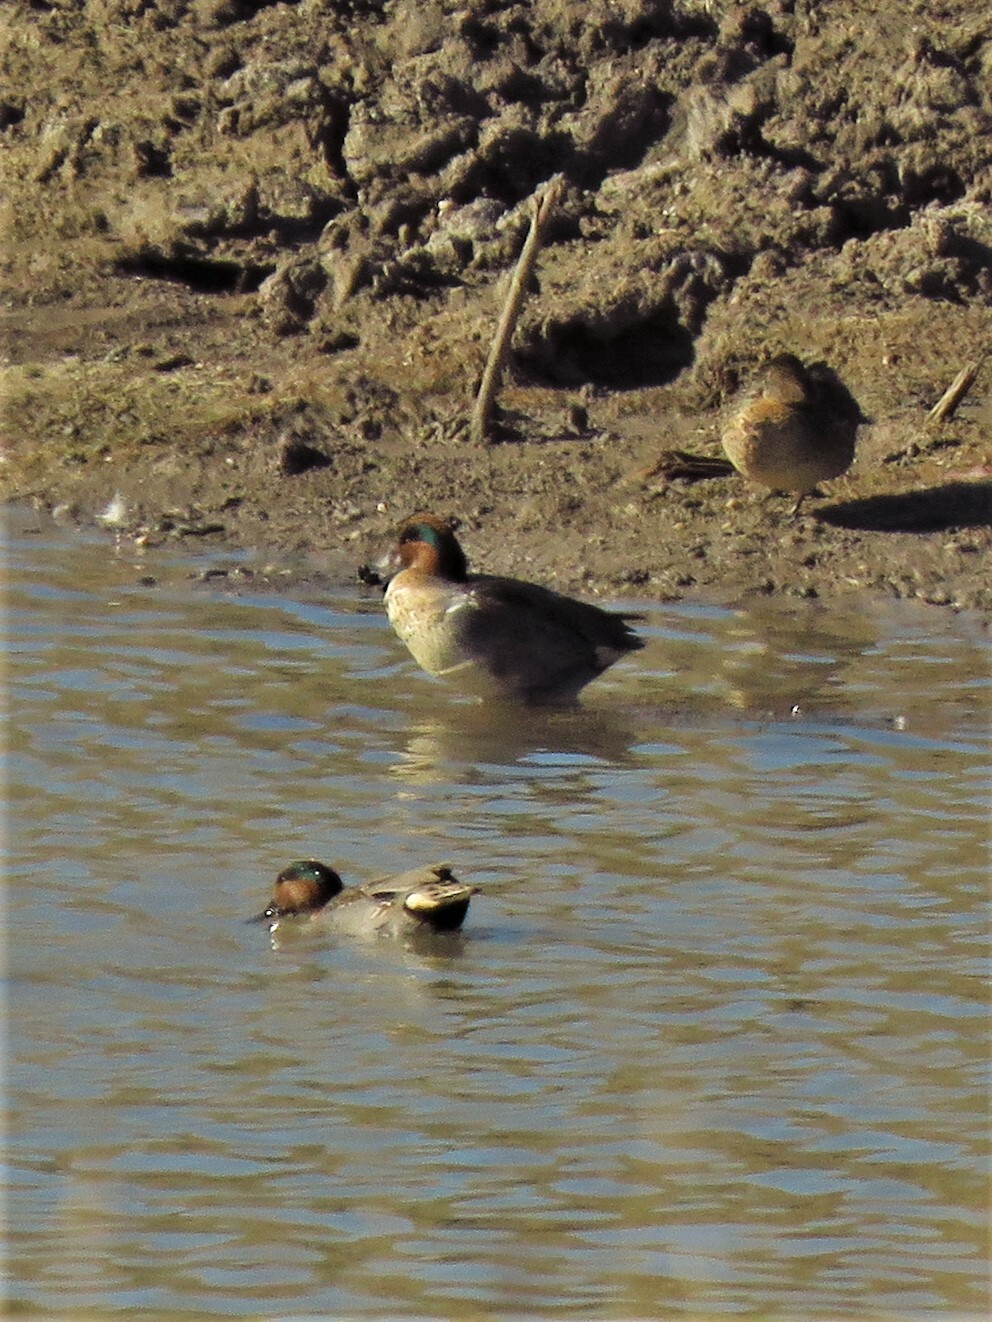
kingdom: Animalia
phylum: Chordata
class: Aves
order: Anseriformes
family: Anatidae
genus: Anas
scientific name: Anas crecca
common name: Eurasian teal
